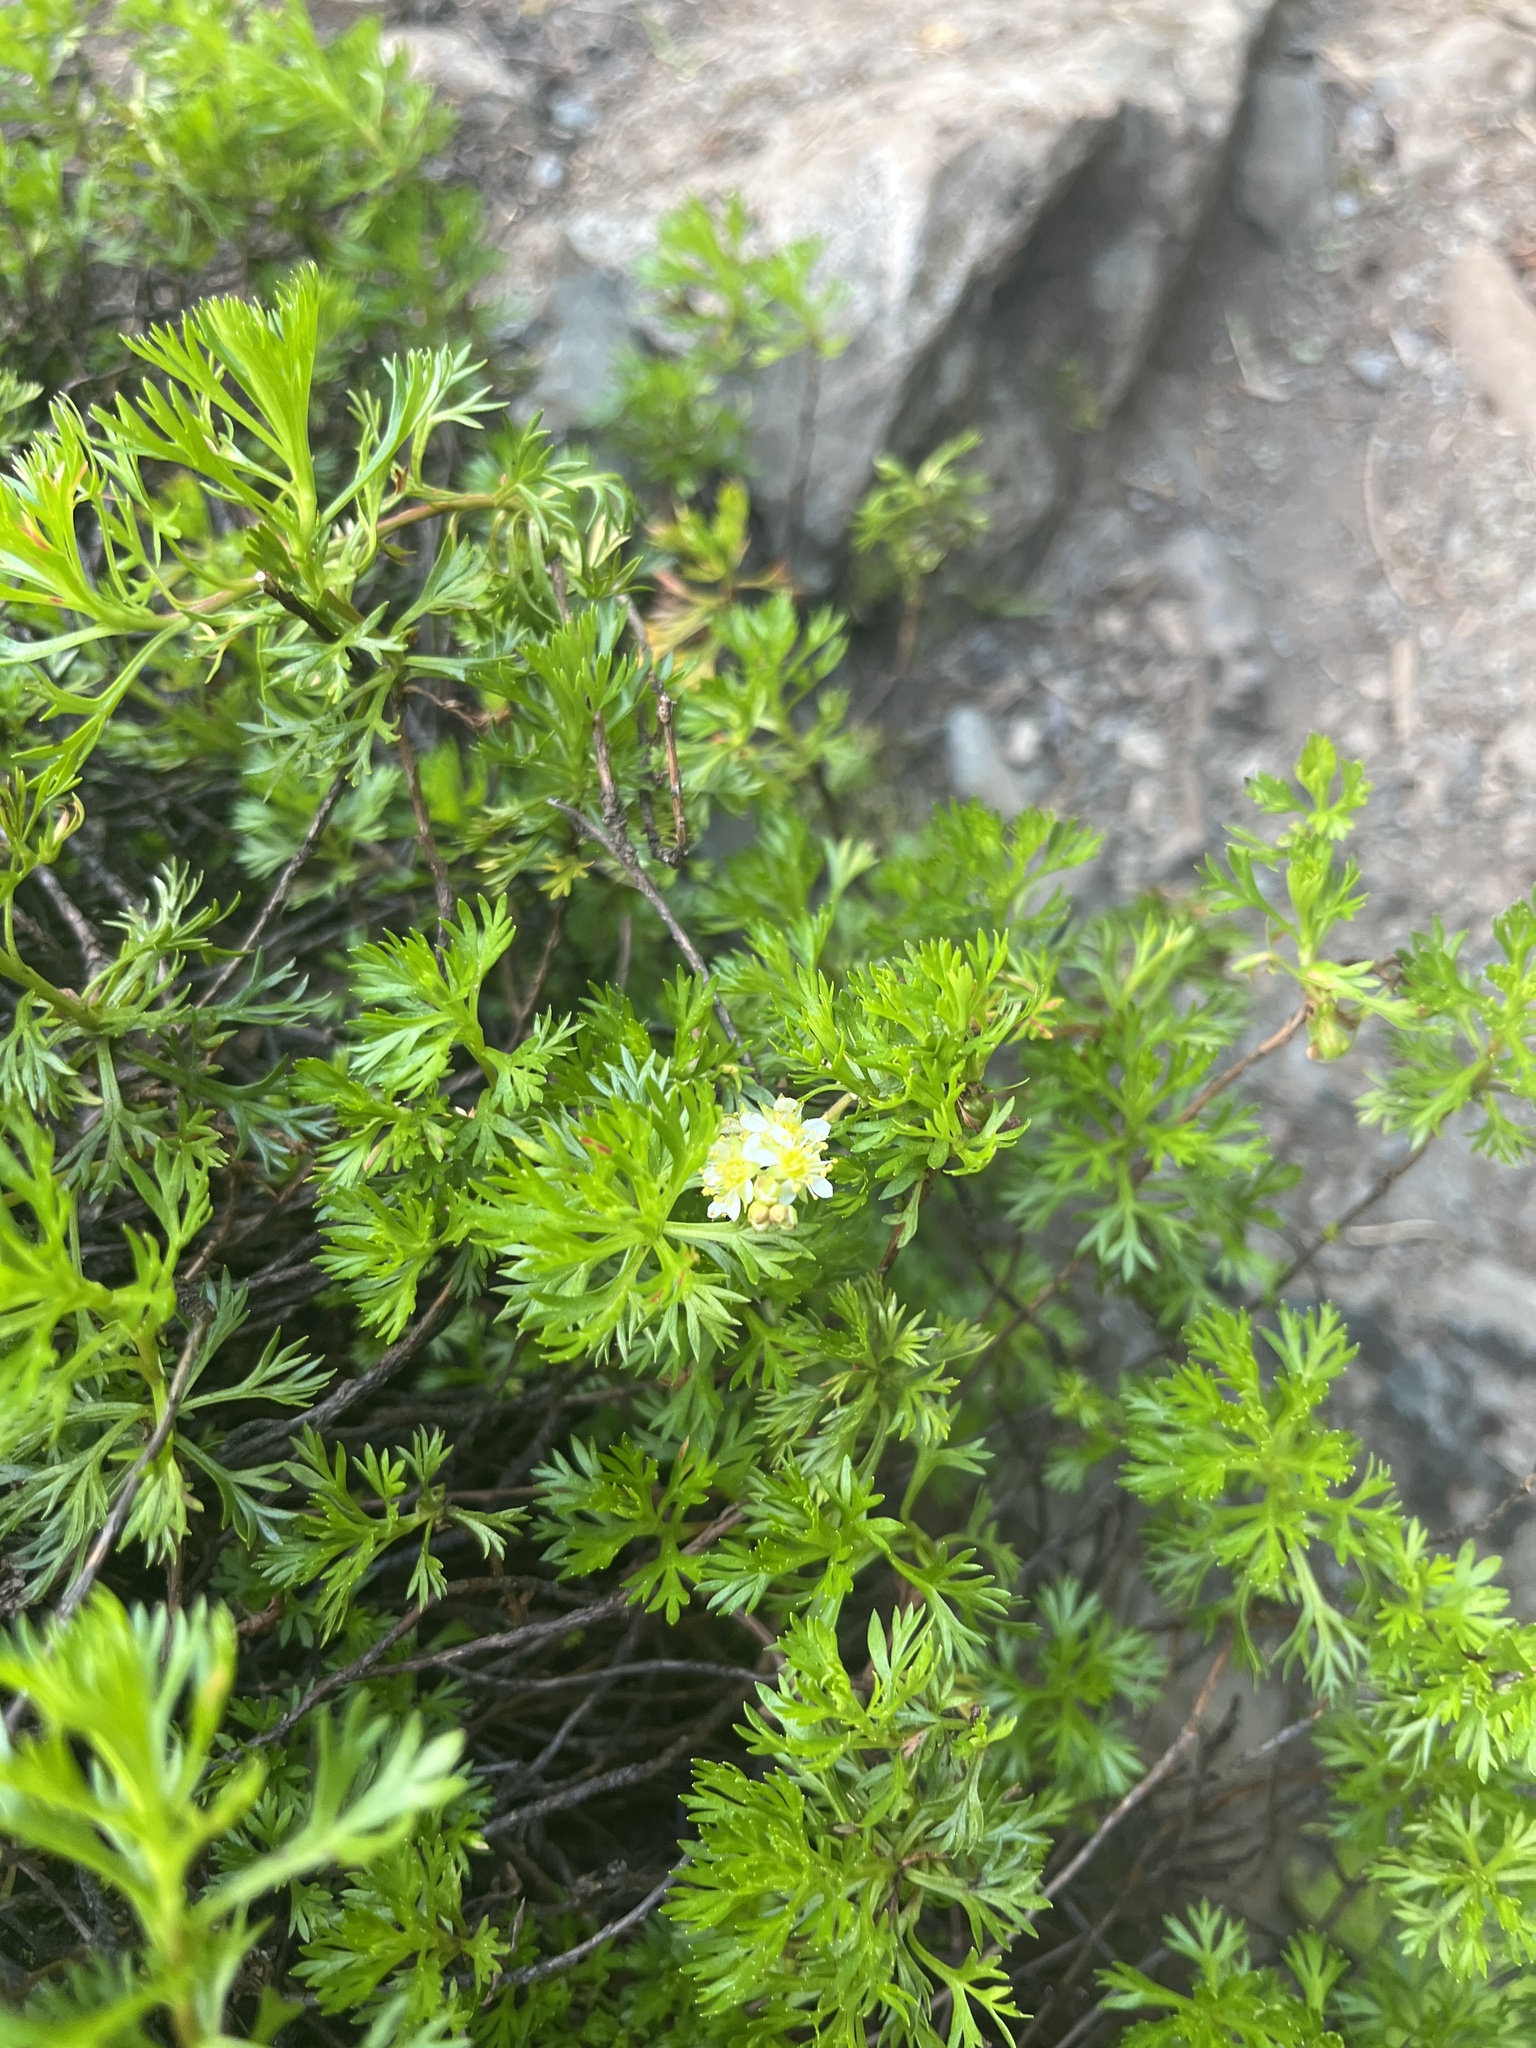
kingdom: Plantae
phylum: Tracheophyta
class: Magnoliopsida
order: Rosales
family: Rosaceae
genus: Luetkea
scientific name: Luetkea pectinata
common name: Partridgefoot
